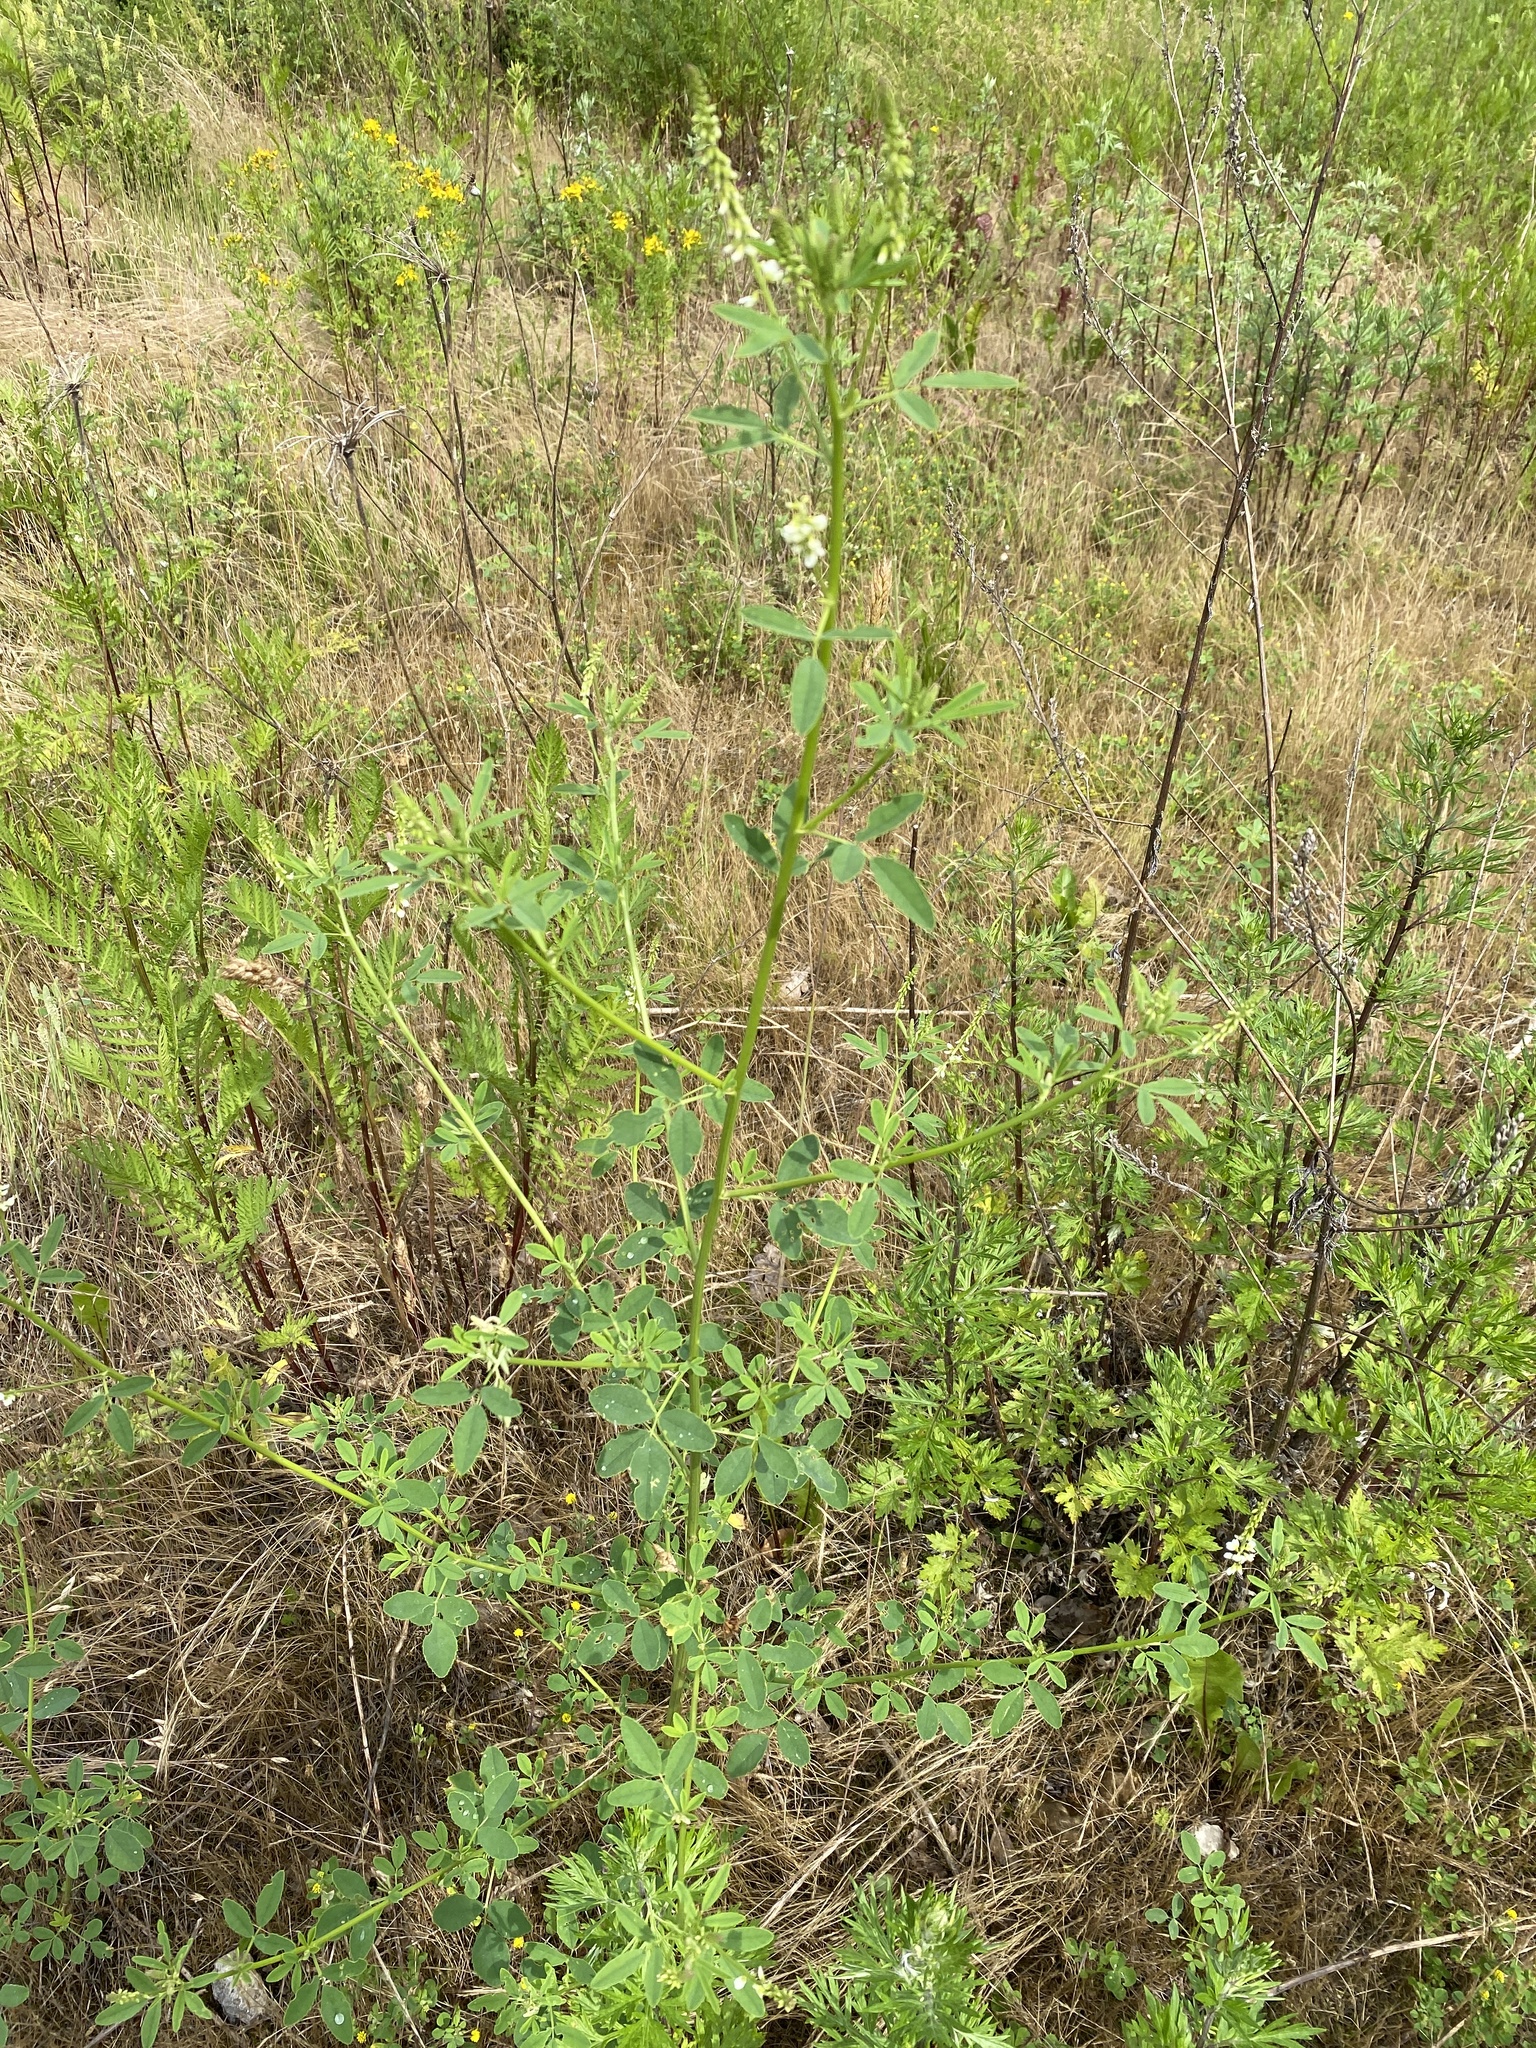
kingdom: Plantae
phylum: Tracheophyta
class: Magnoliopsida
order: Fabales
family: Fabaceae
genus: Melilotus
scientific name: Melilotus albus
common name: White melilot
